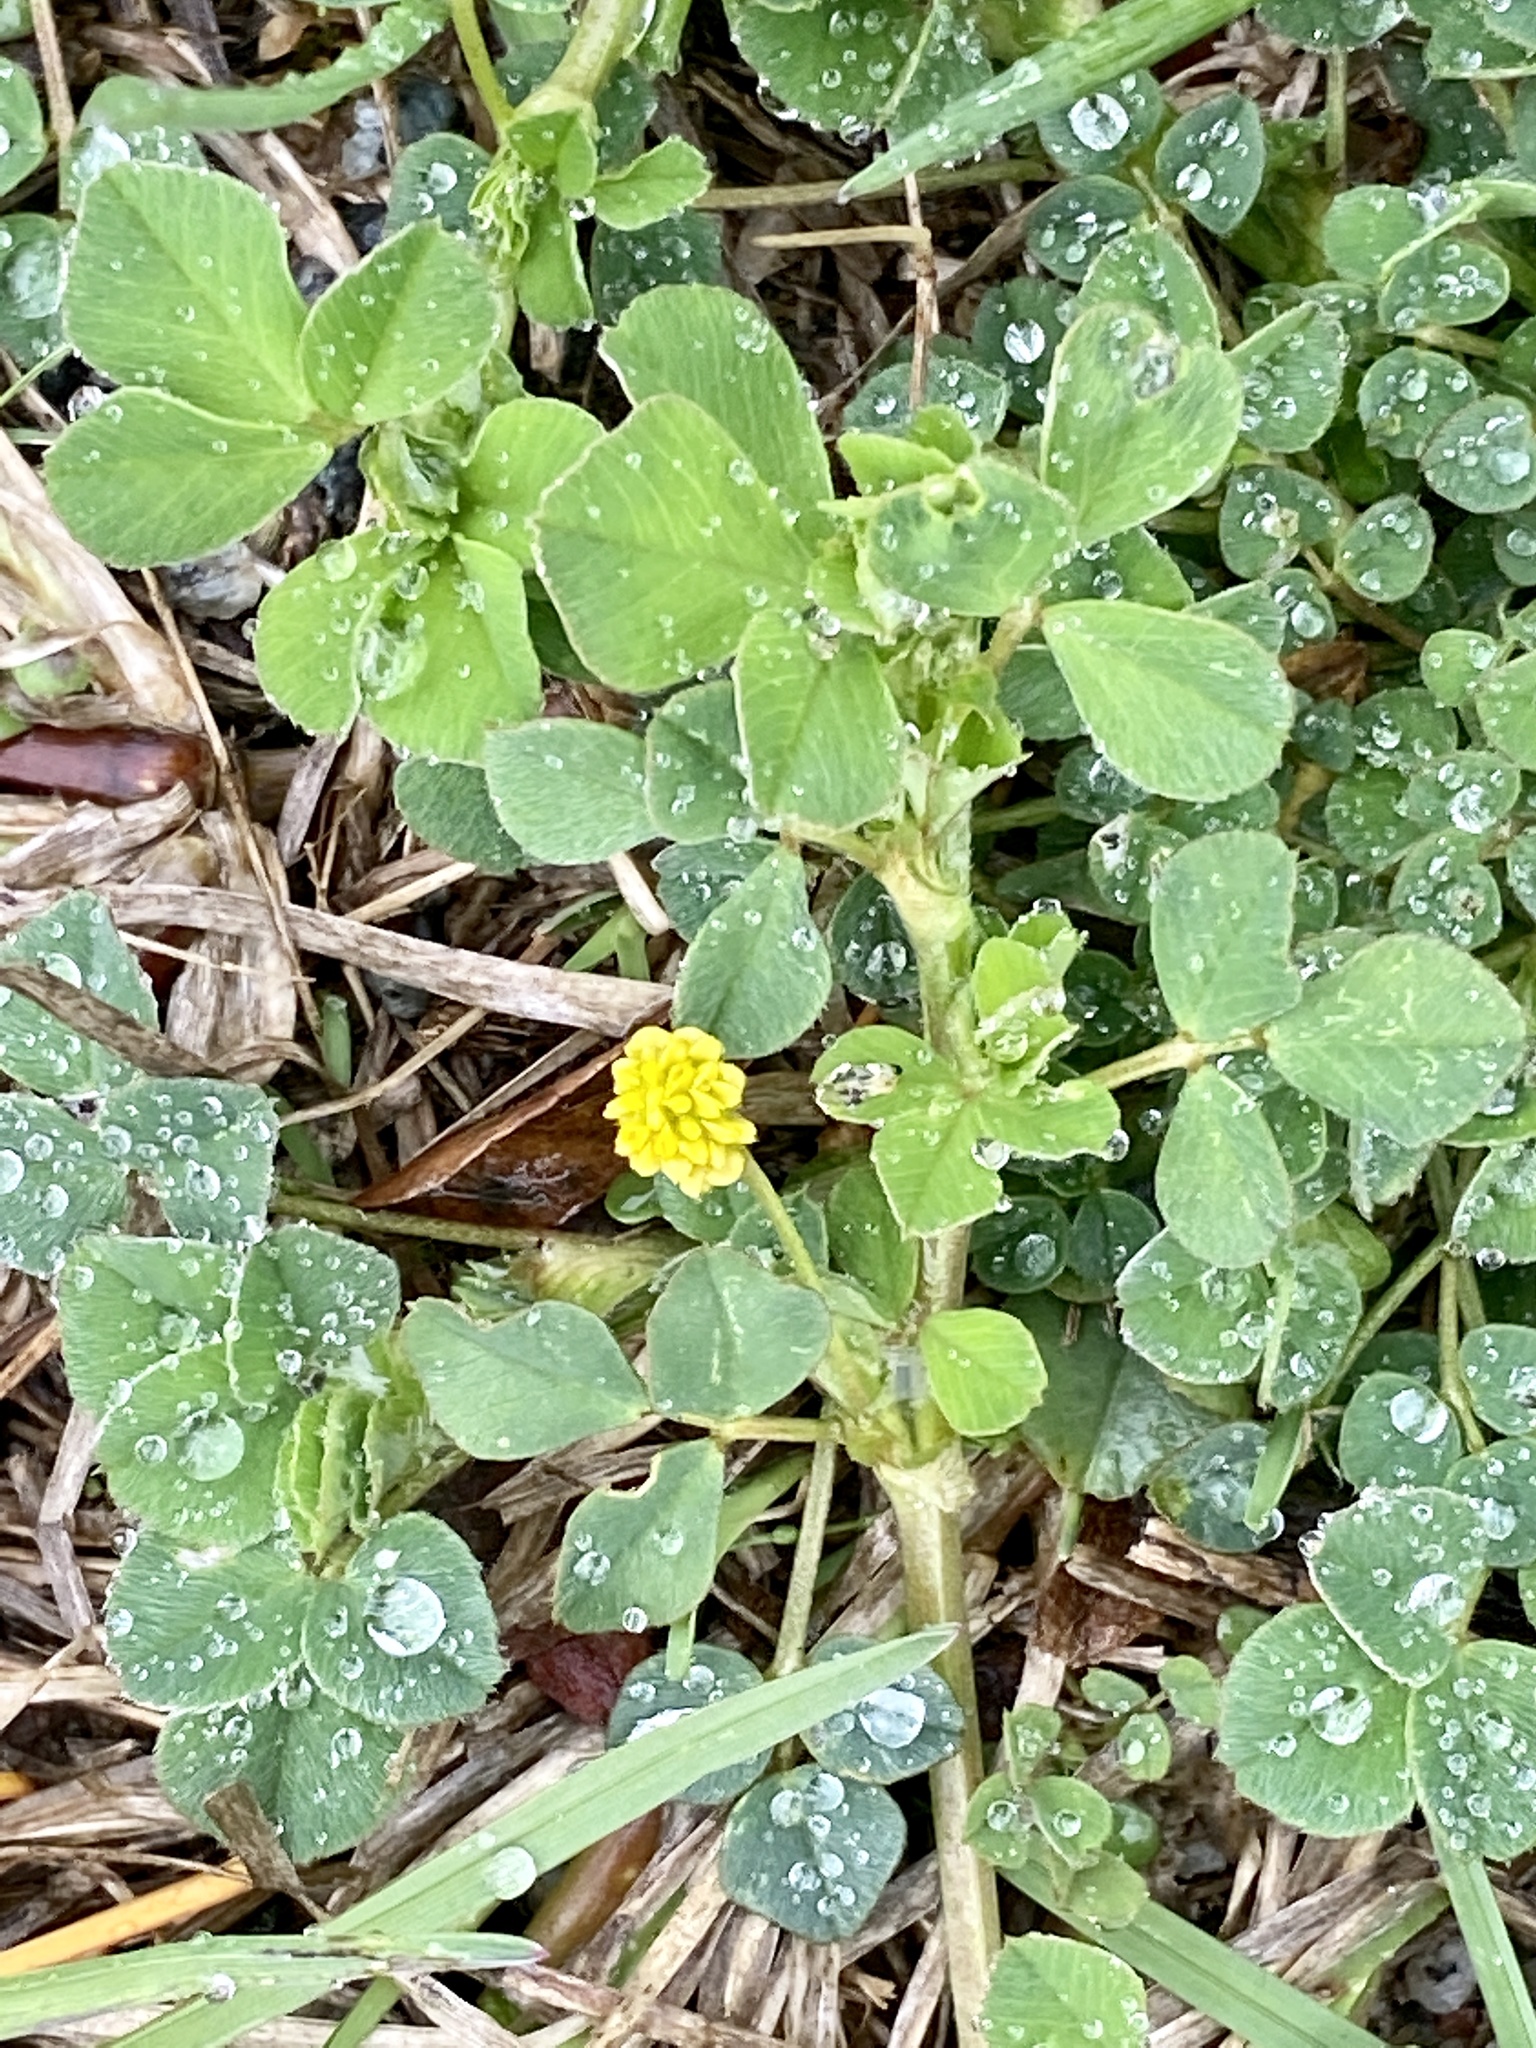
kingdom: Plantae
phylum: Tracheophyta
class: Magnoliopsida
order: Fabales
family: Fabaceae
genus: Medicago
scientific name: Medicago lupulina
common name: Black medick
